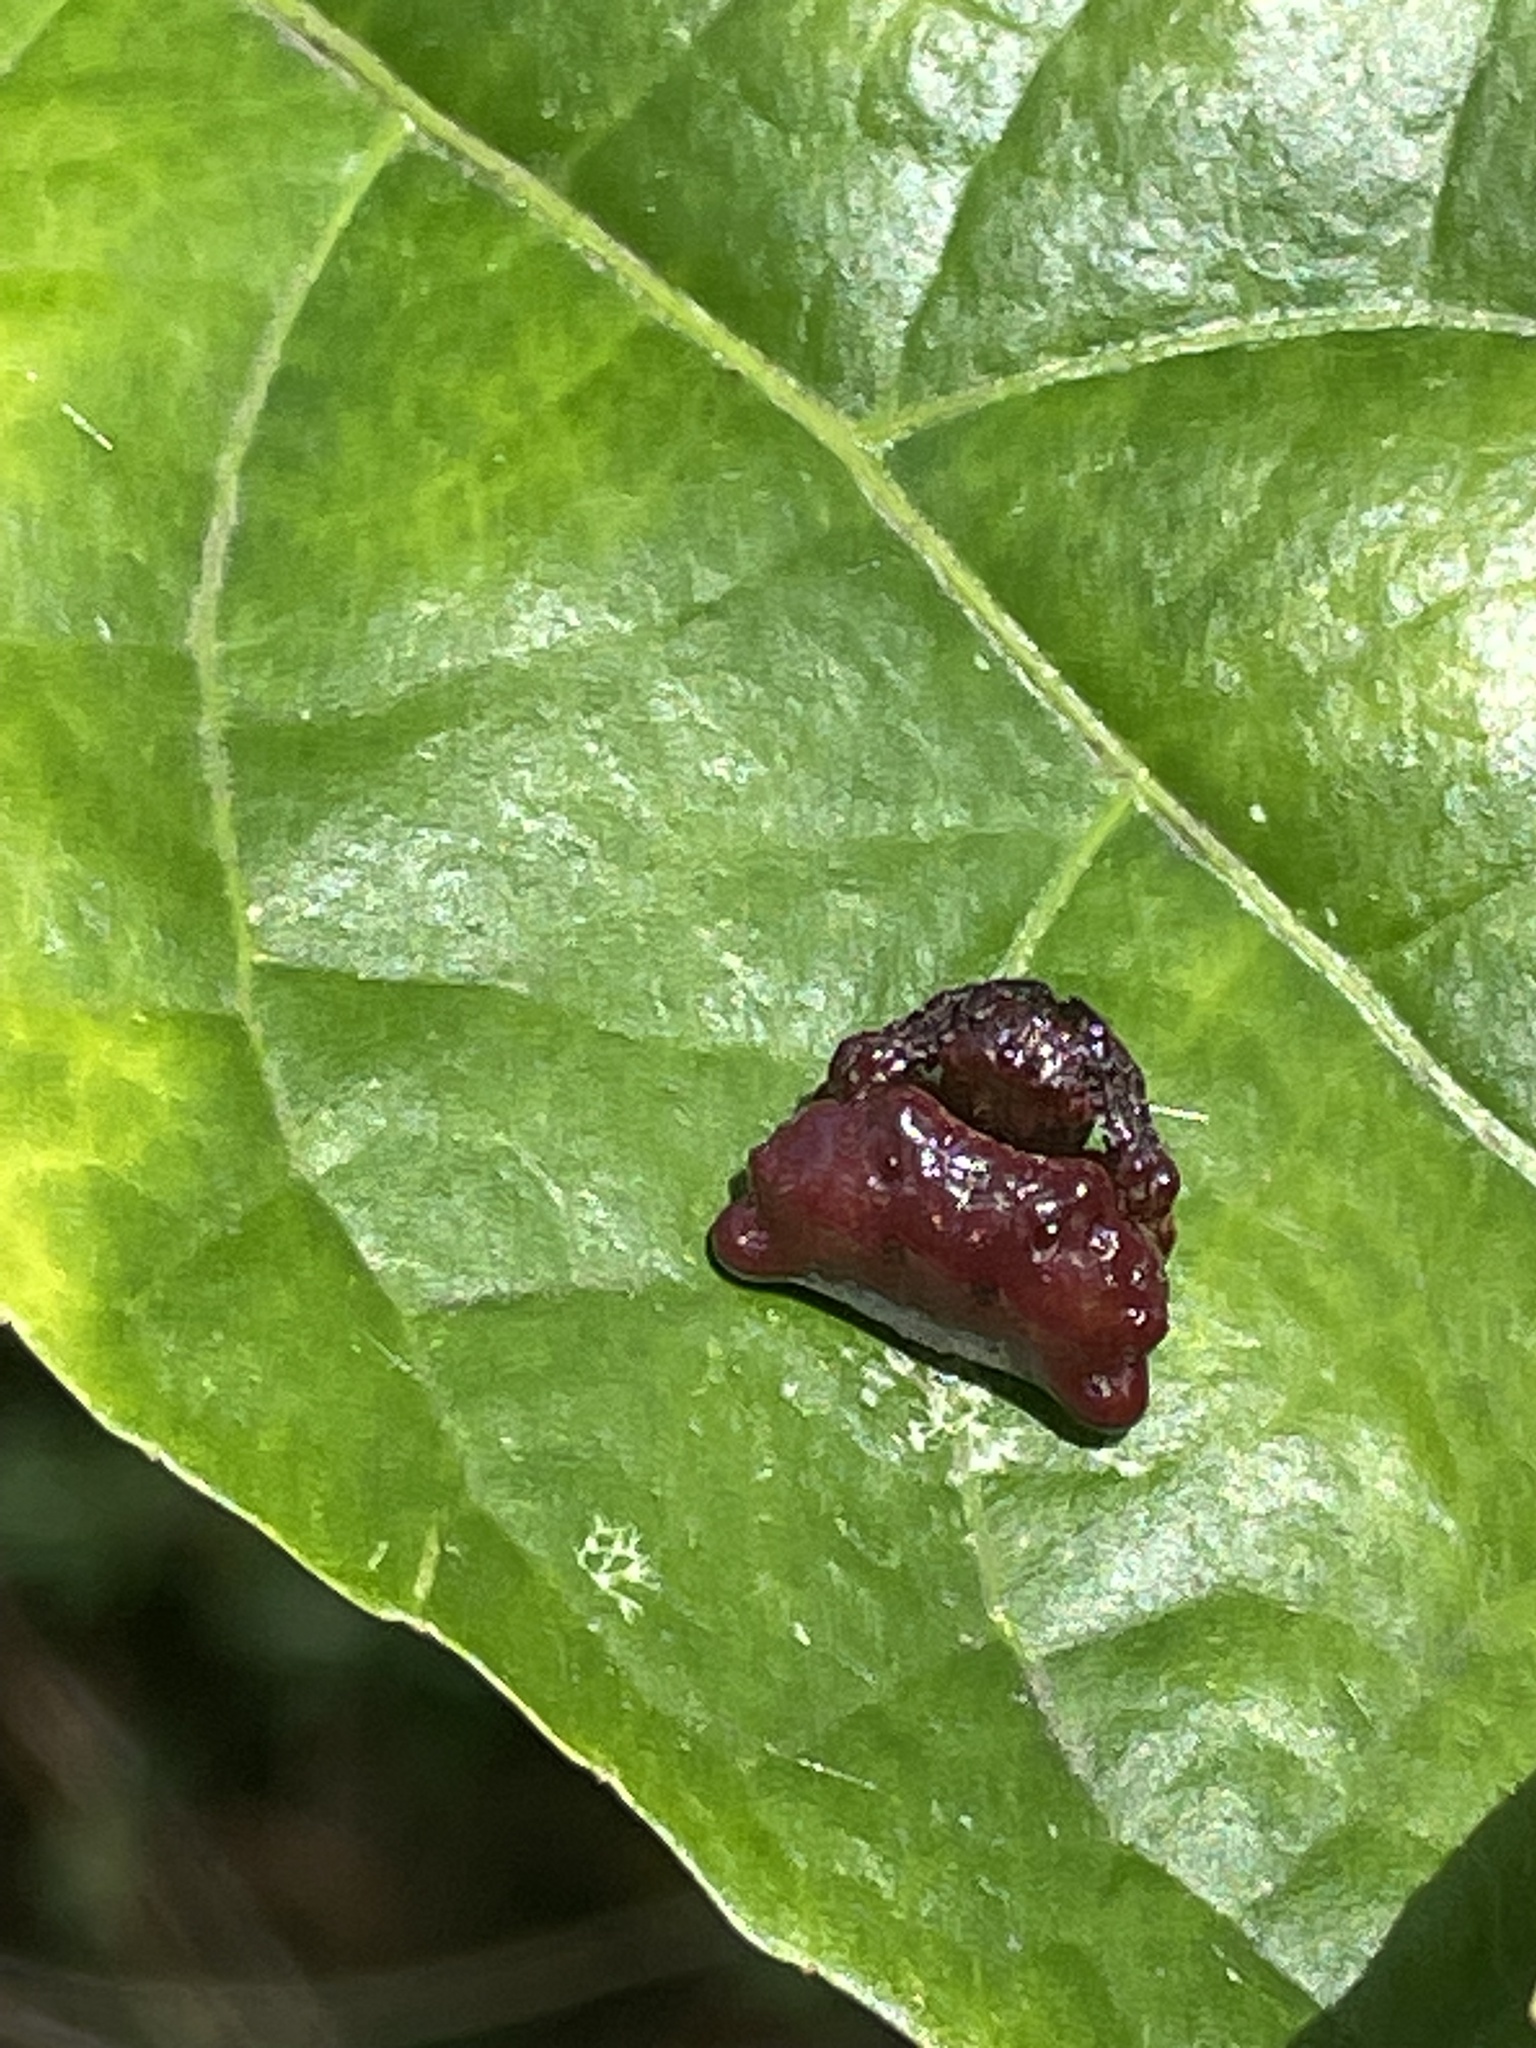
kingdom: Animalia
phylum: Arthropoda
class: Arachnida
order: Araneae
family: Arkyidae
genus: Arkys
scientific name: Arkys curtulus
